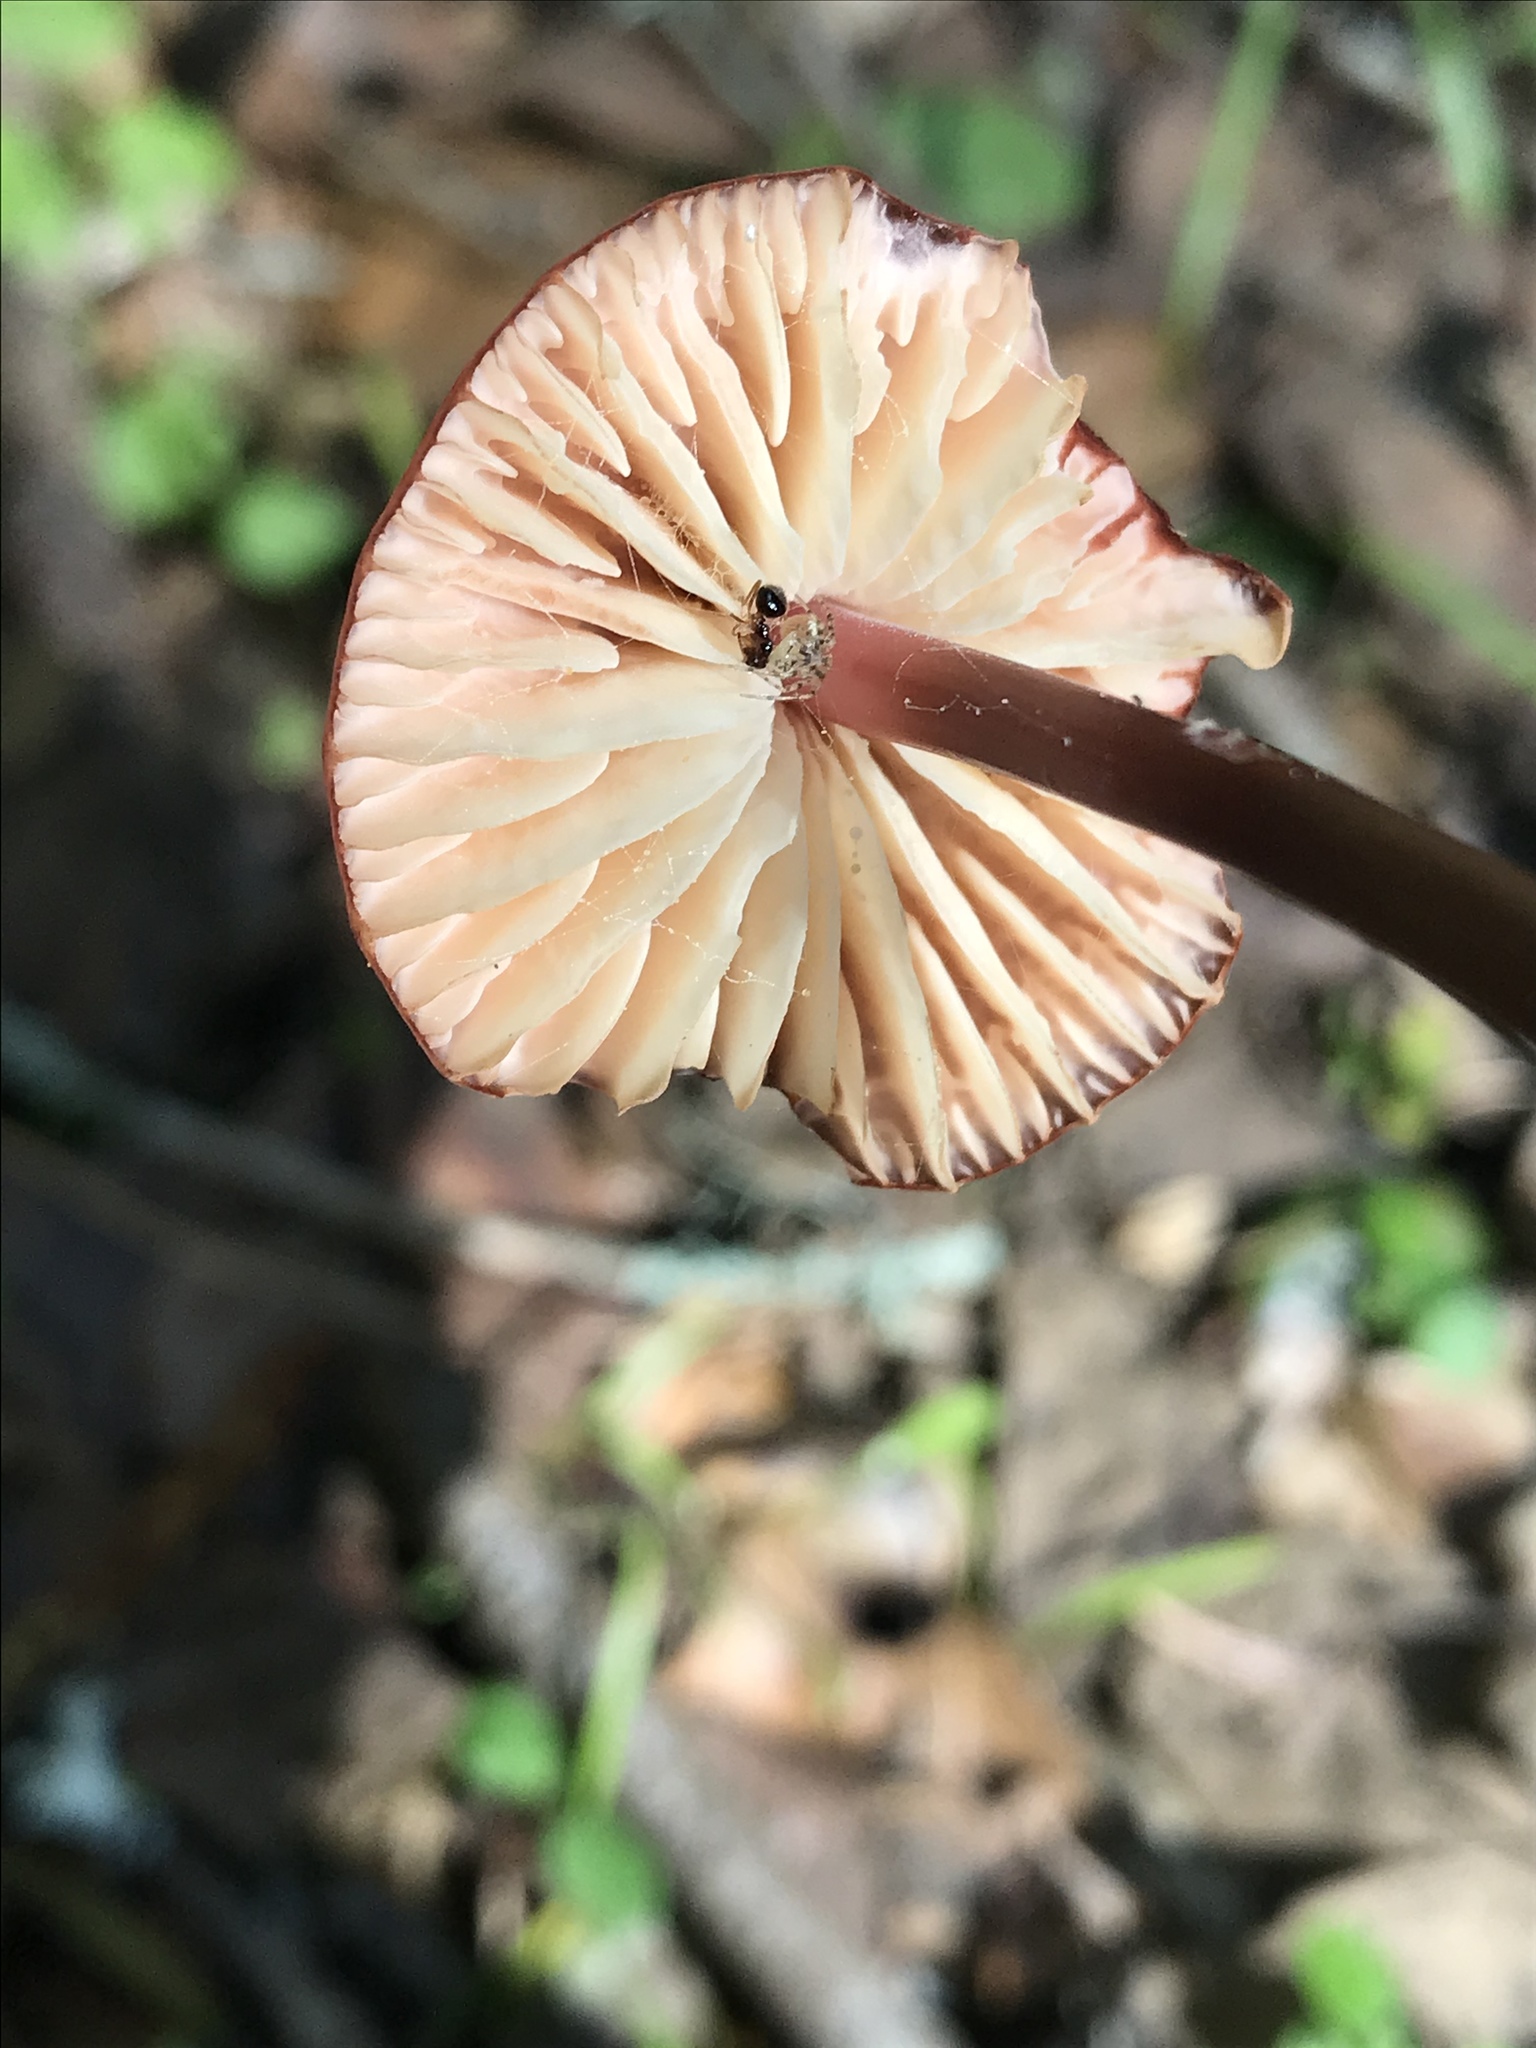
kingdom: Fungi
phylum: Basidiomycota
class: Agaricomycetes
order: Agaricales
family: Marasmiaceae
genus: Marasmius
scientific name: Marasmius plicatulus
